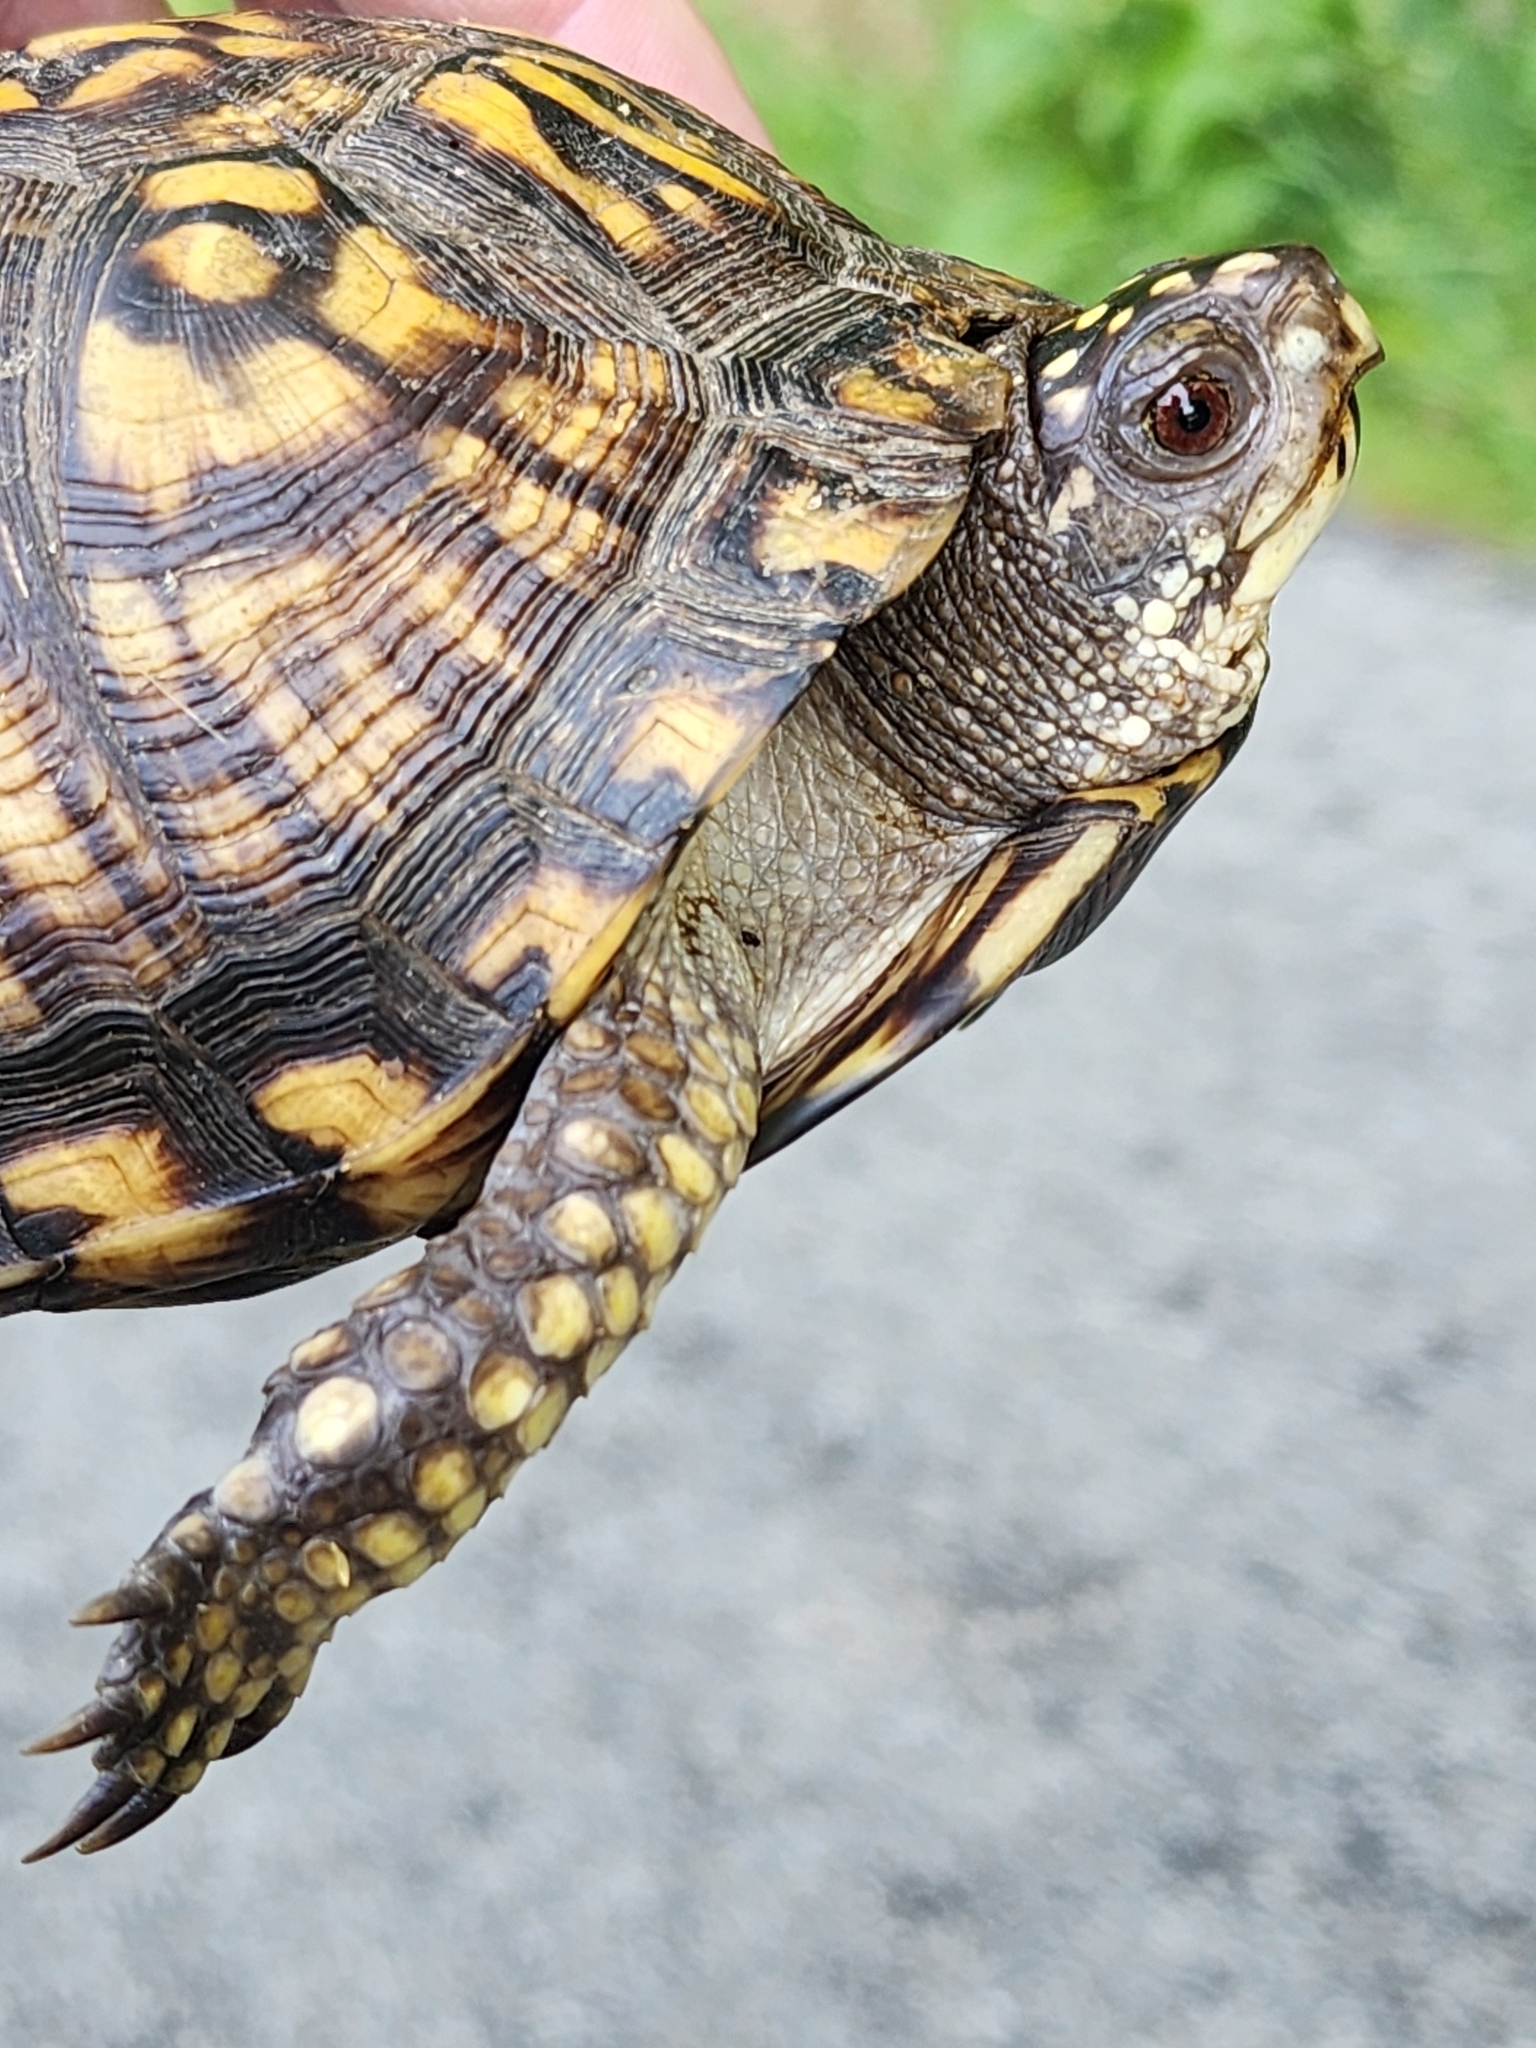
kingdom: Animalia
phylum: Chordata
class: Testudines
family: Emydidae
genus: Terrapene
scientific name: Terrapene carolina
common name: Common box turtle
